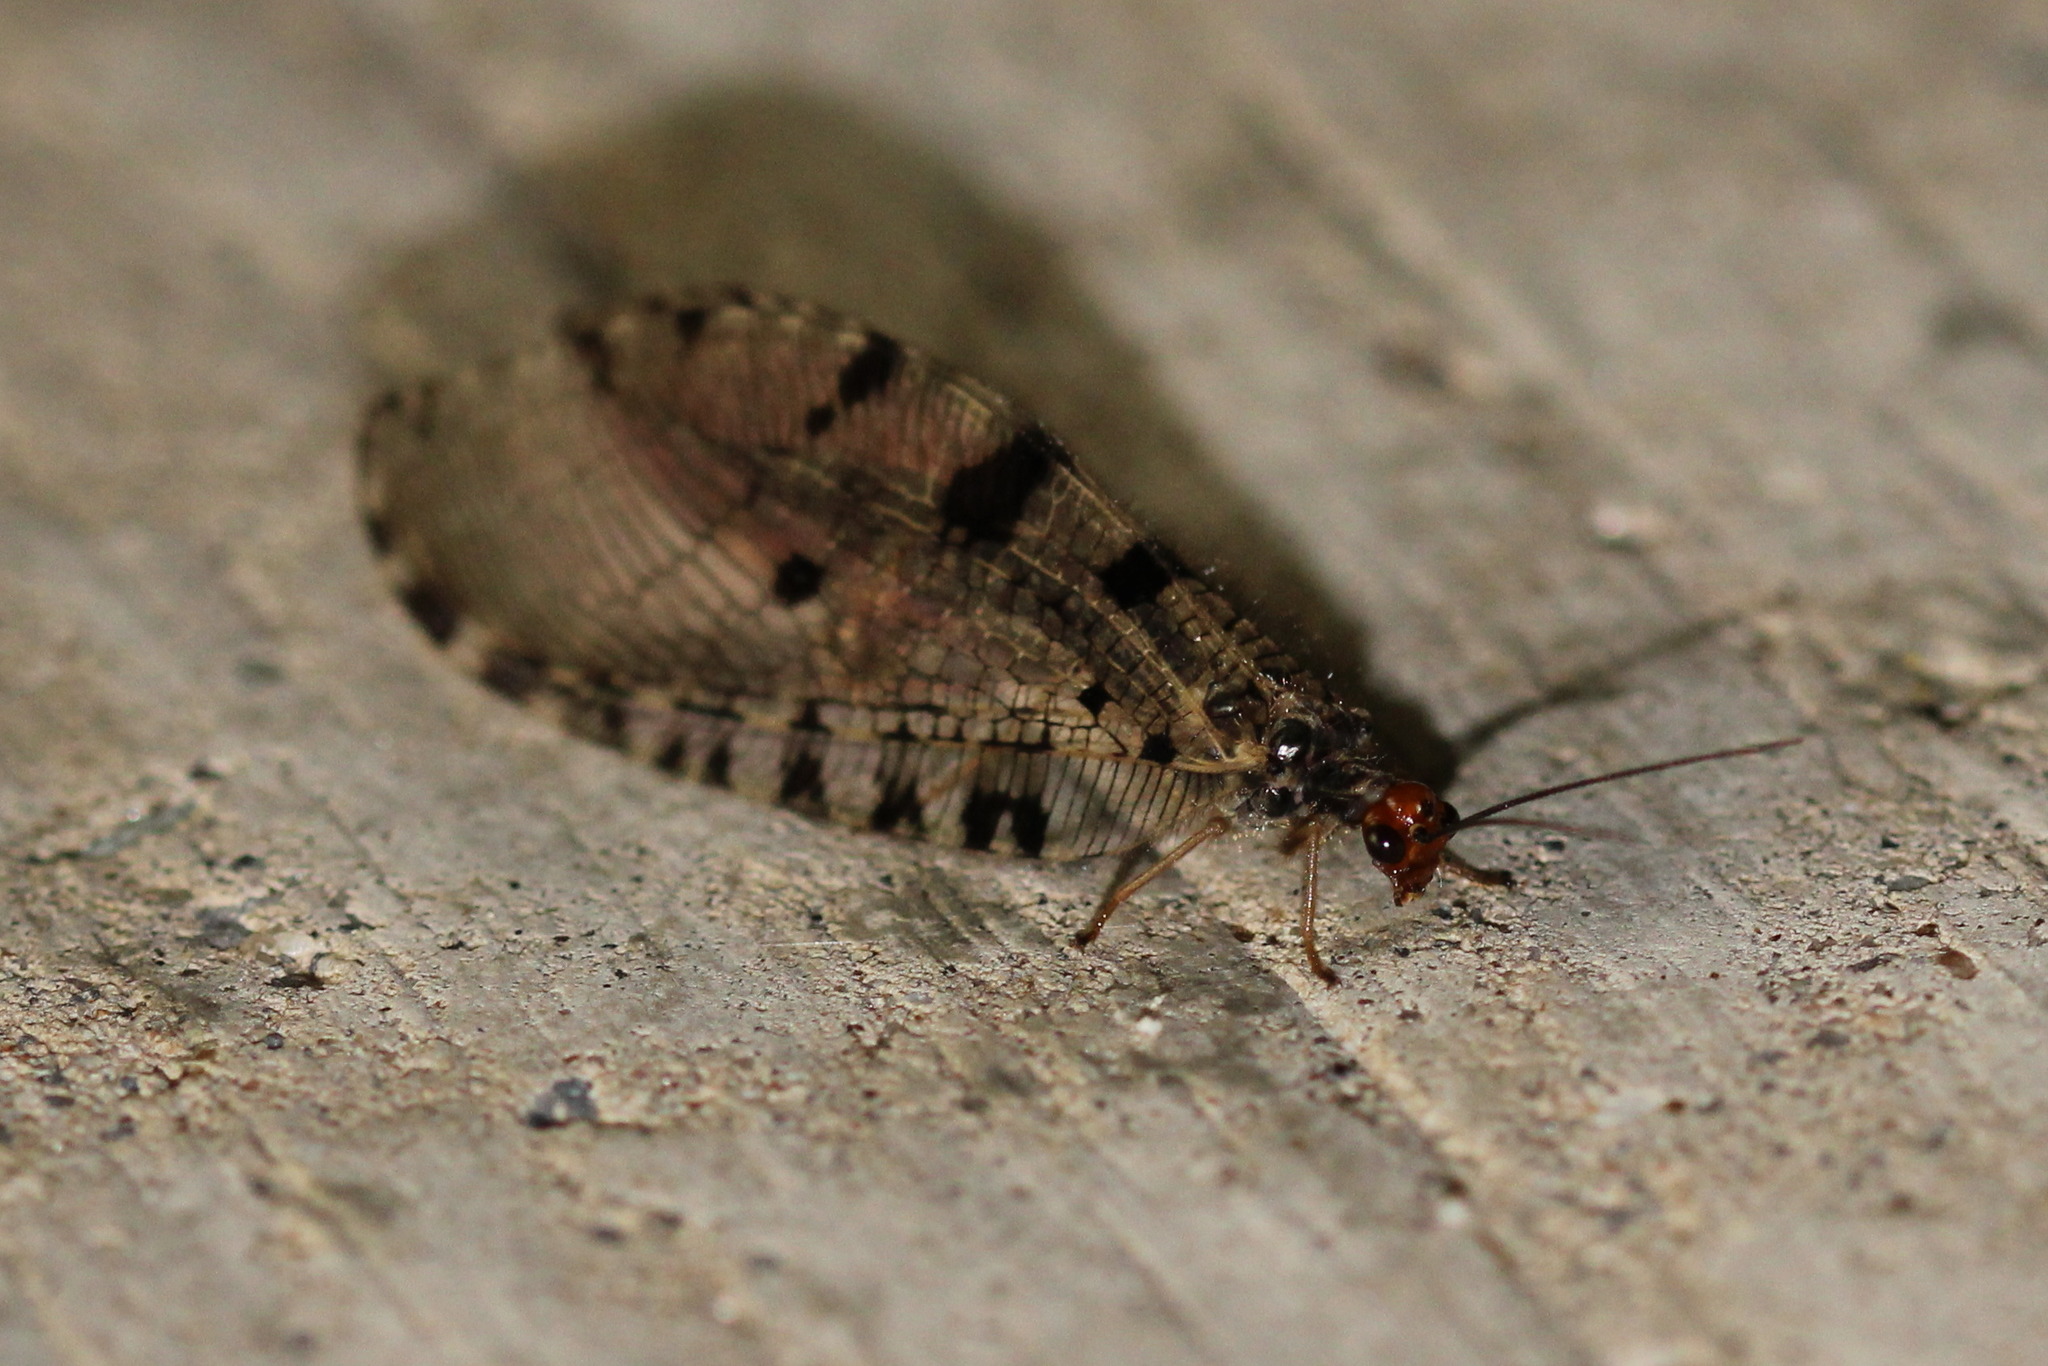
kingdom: Animalia
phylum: Arthropoda
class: Insecta
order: Neuroptera
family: Osmylidae
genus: Osmylus
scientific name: Osmylus fulvicephalus
